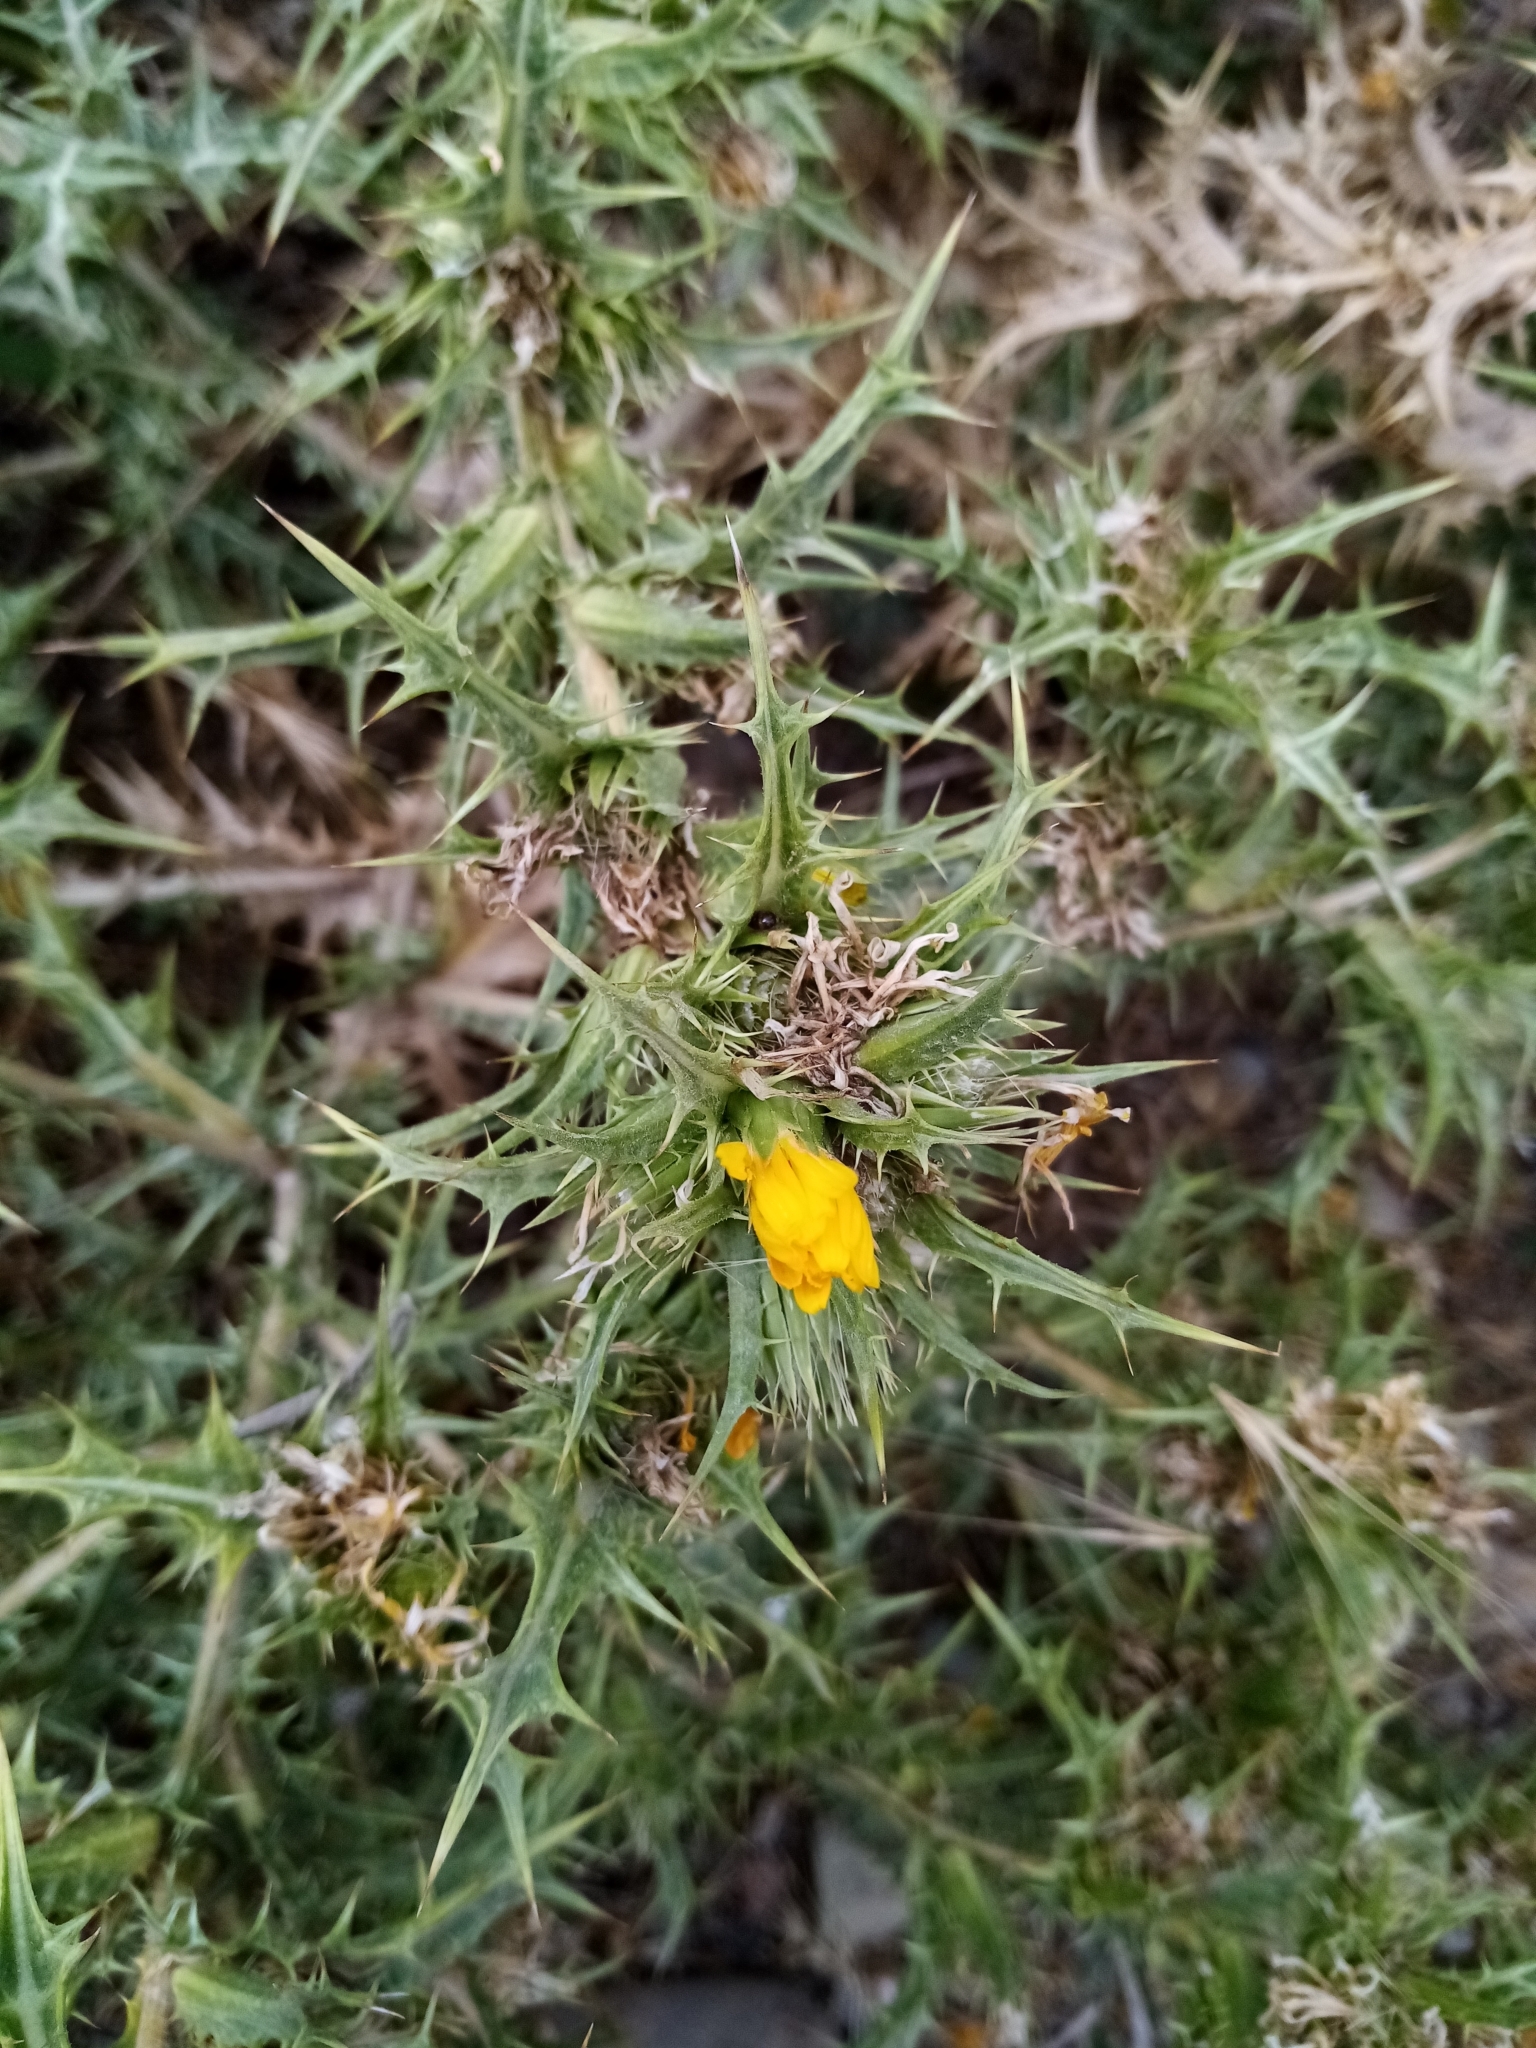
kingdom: Plantae
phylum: Tracheophyta
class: Magnoliopsida
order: Asterales
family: Asteraceae
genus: Scolymus
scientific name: Scolymus hispanicus
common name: Golden thistle
